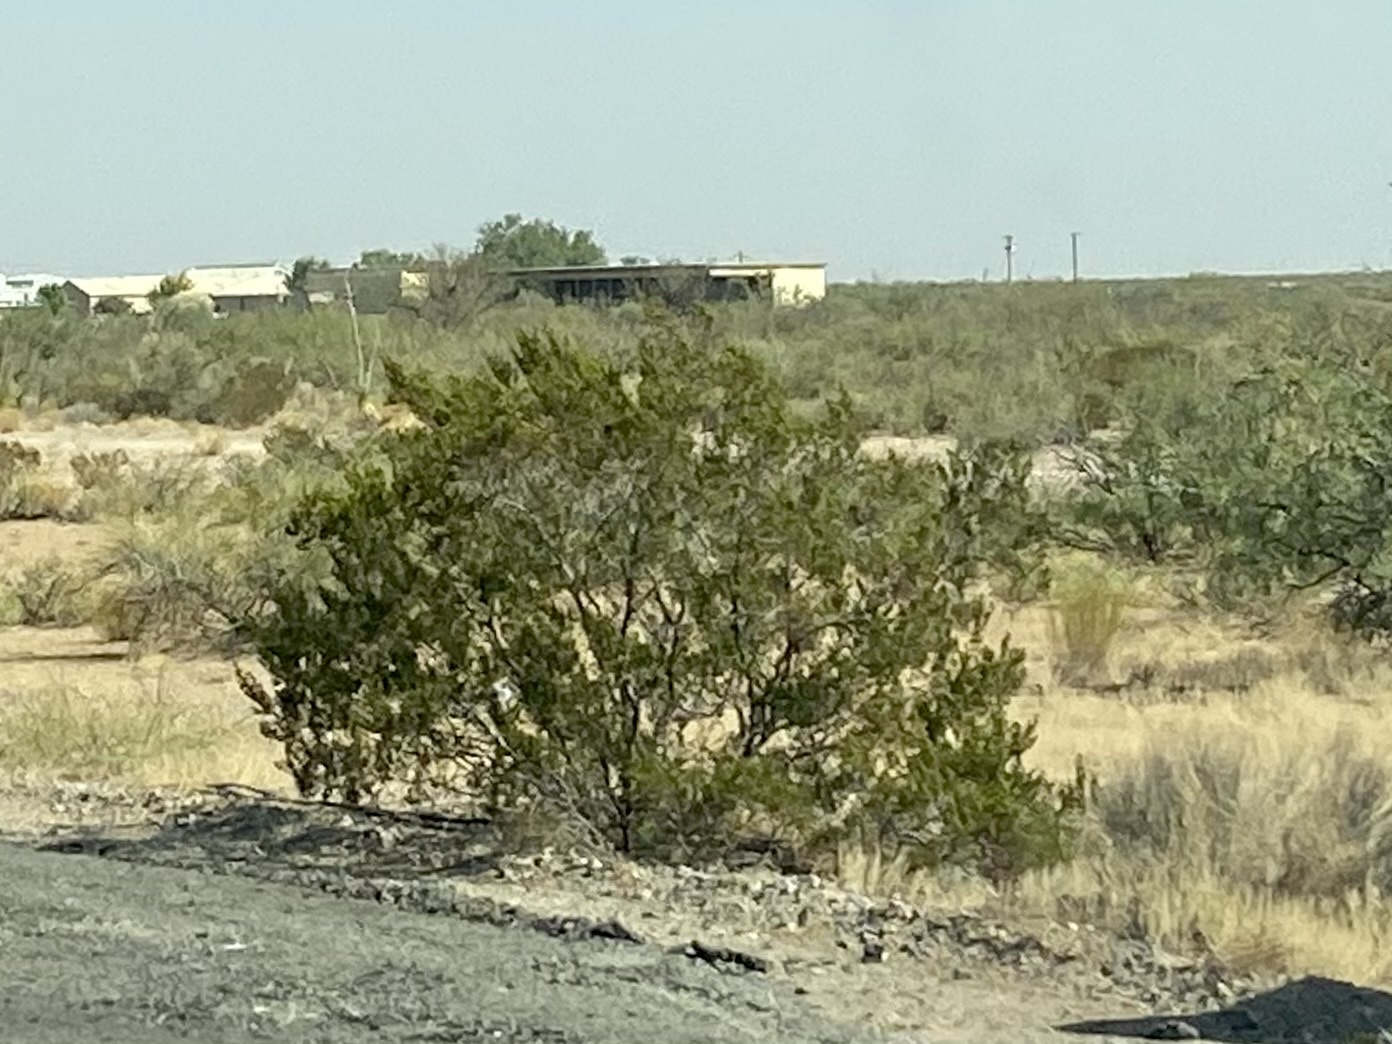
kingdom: Plantae
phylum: Tracheophyta
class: Magnoliopsida
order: Zygophyllales
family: Zygophyllaceae
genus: Larrea
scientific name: Larrea tridentata
